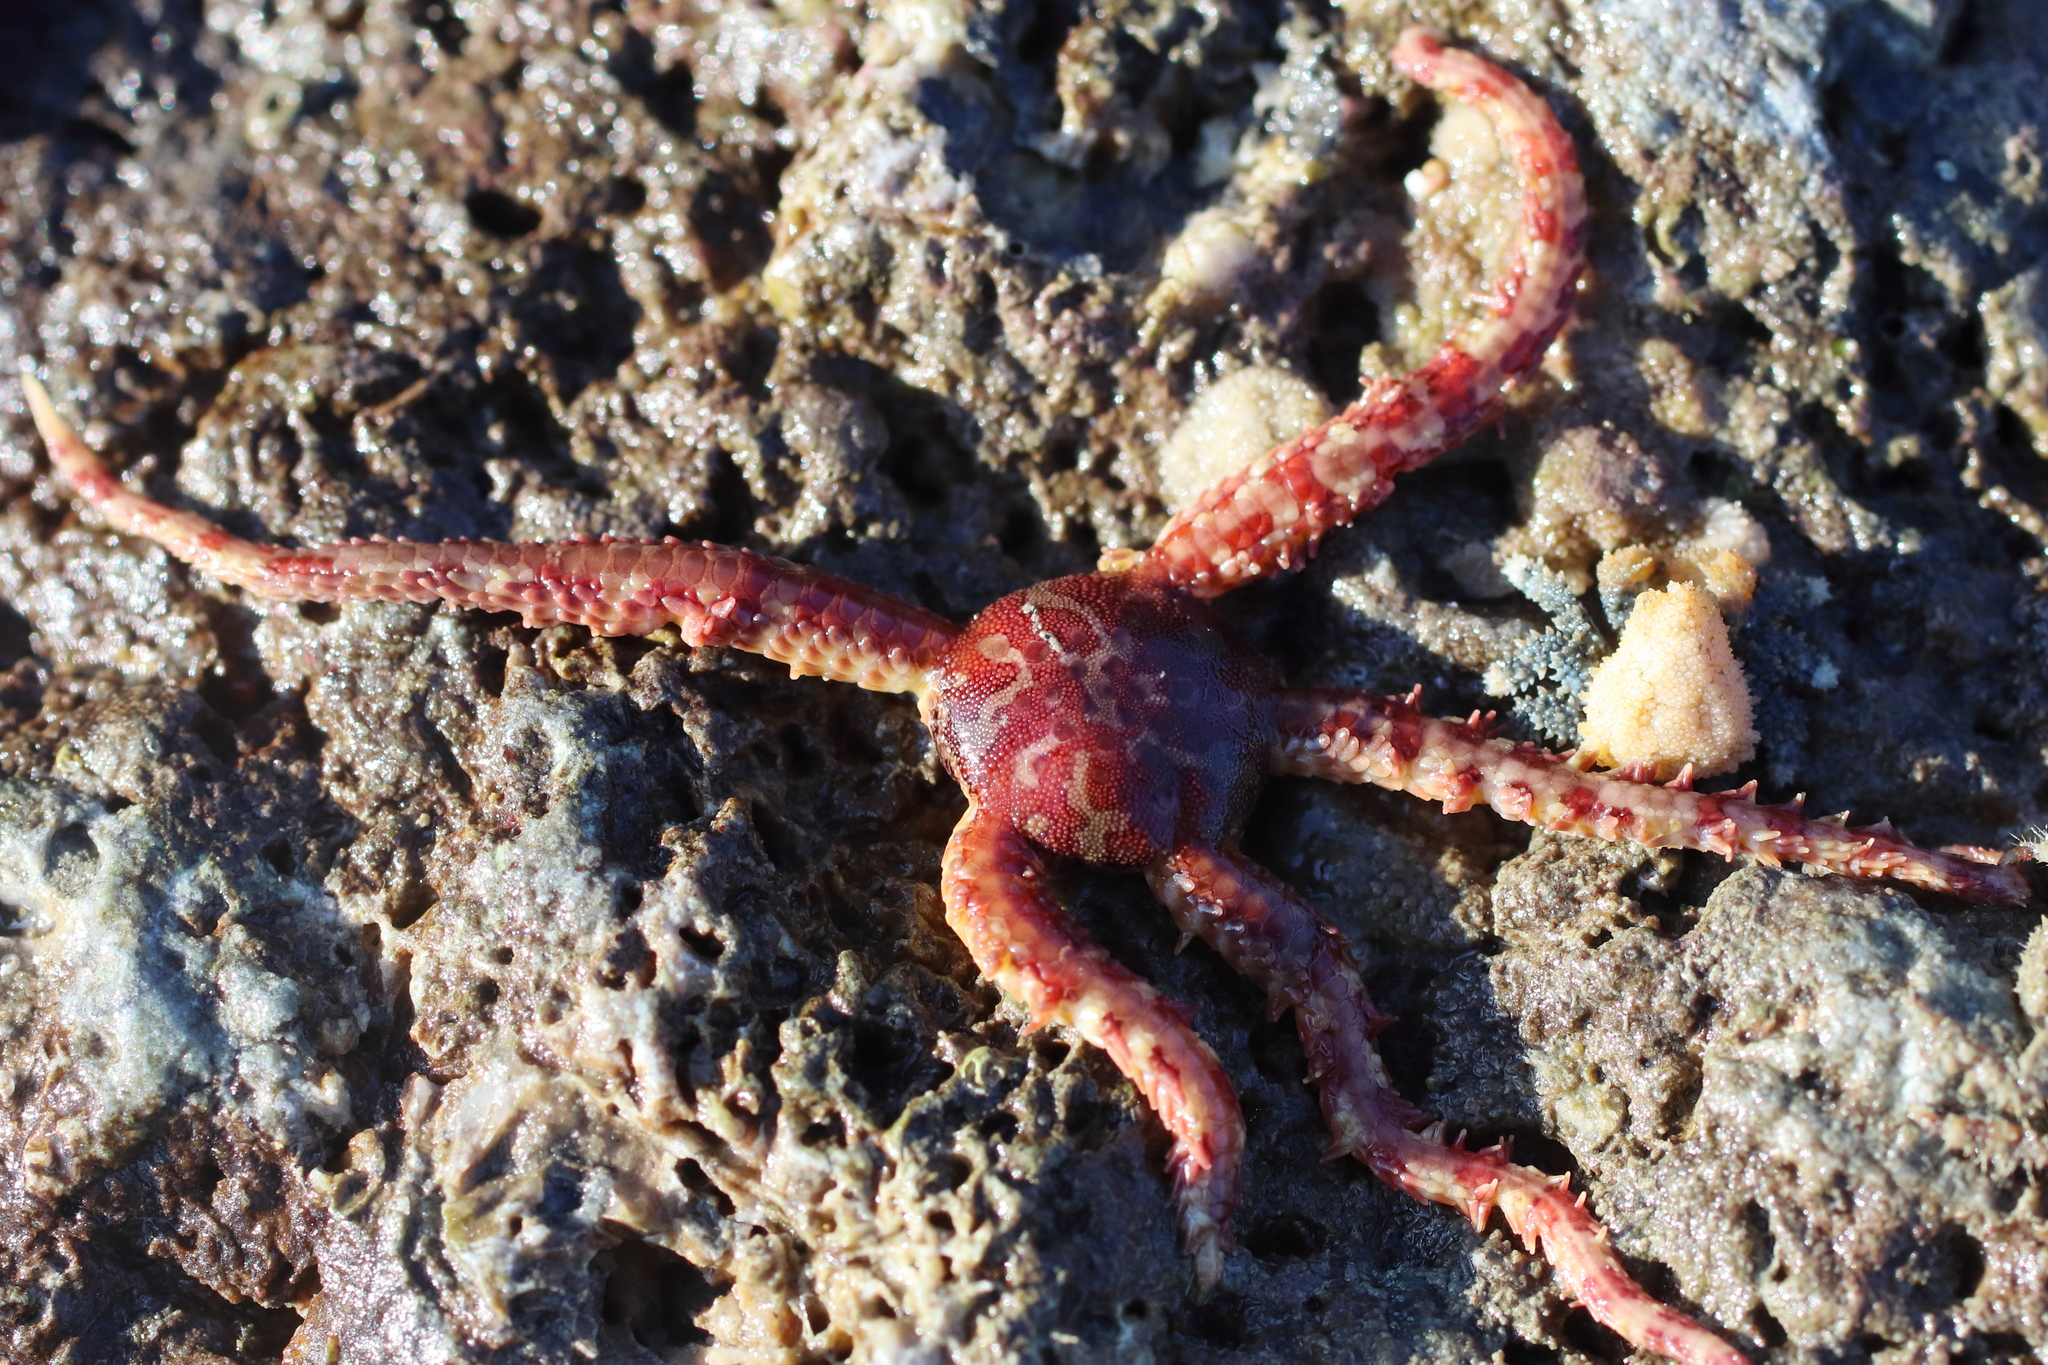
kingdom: Animalia
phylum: Echinodermata
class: Ophiuroidea
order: Amphilepidida
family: Ophiopholidae
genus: Ophiopholis
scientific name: Ophiopholis kennerlyi
